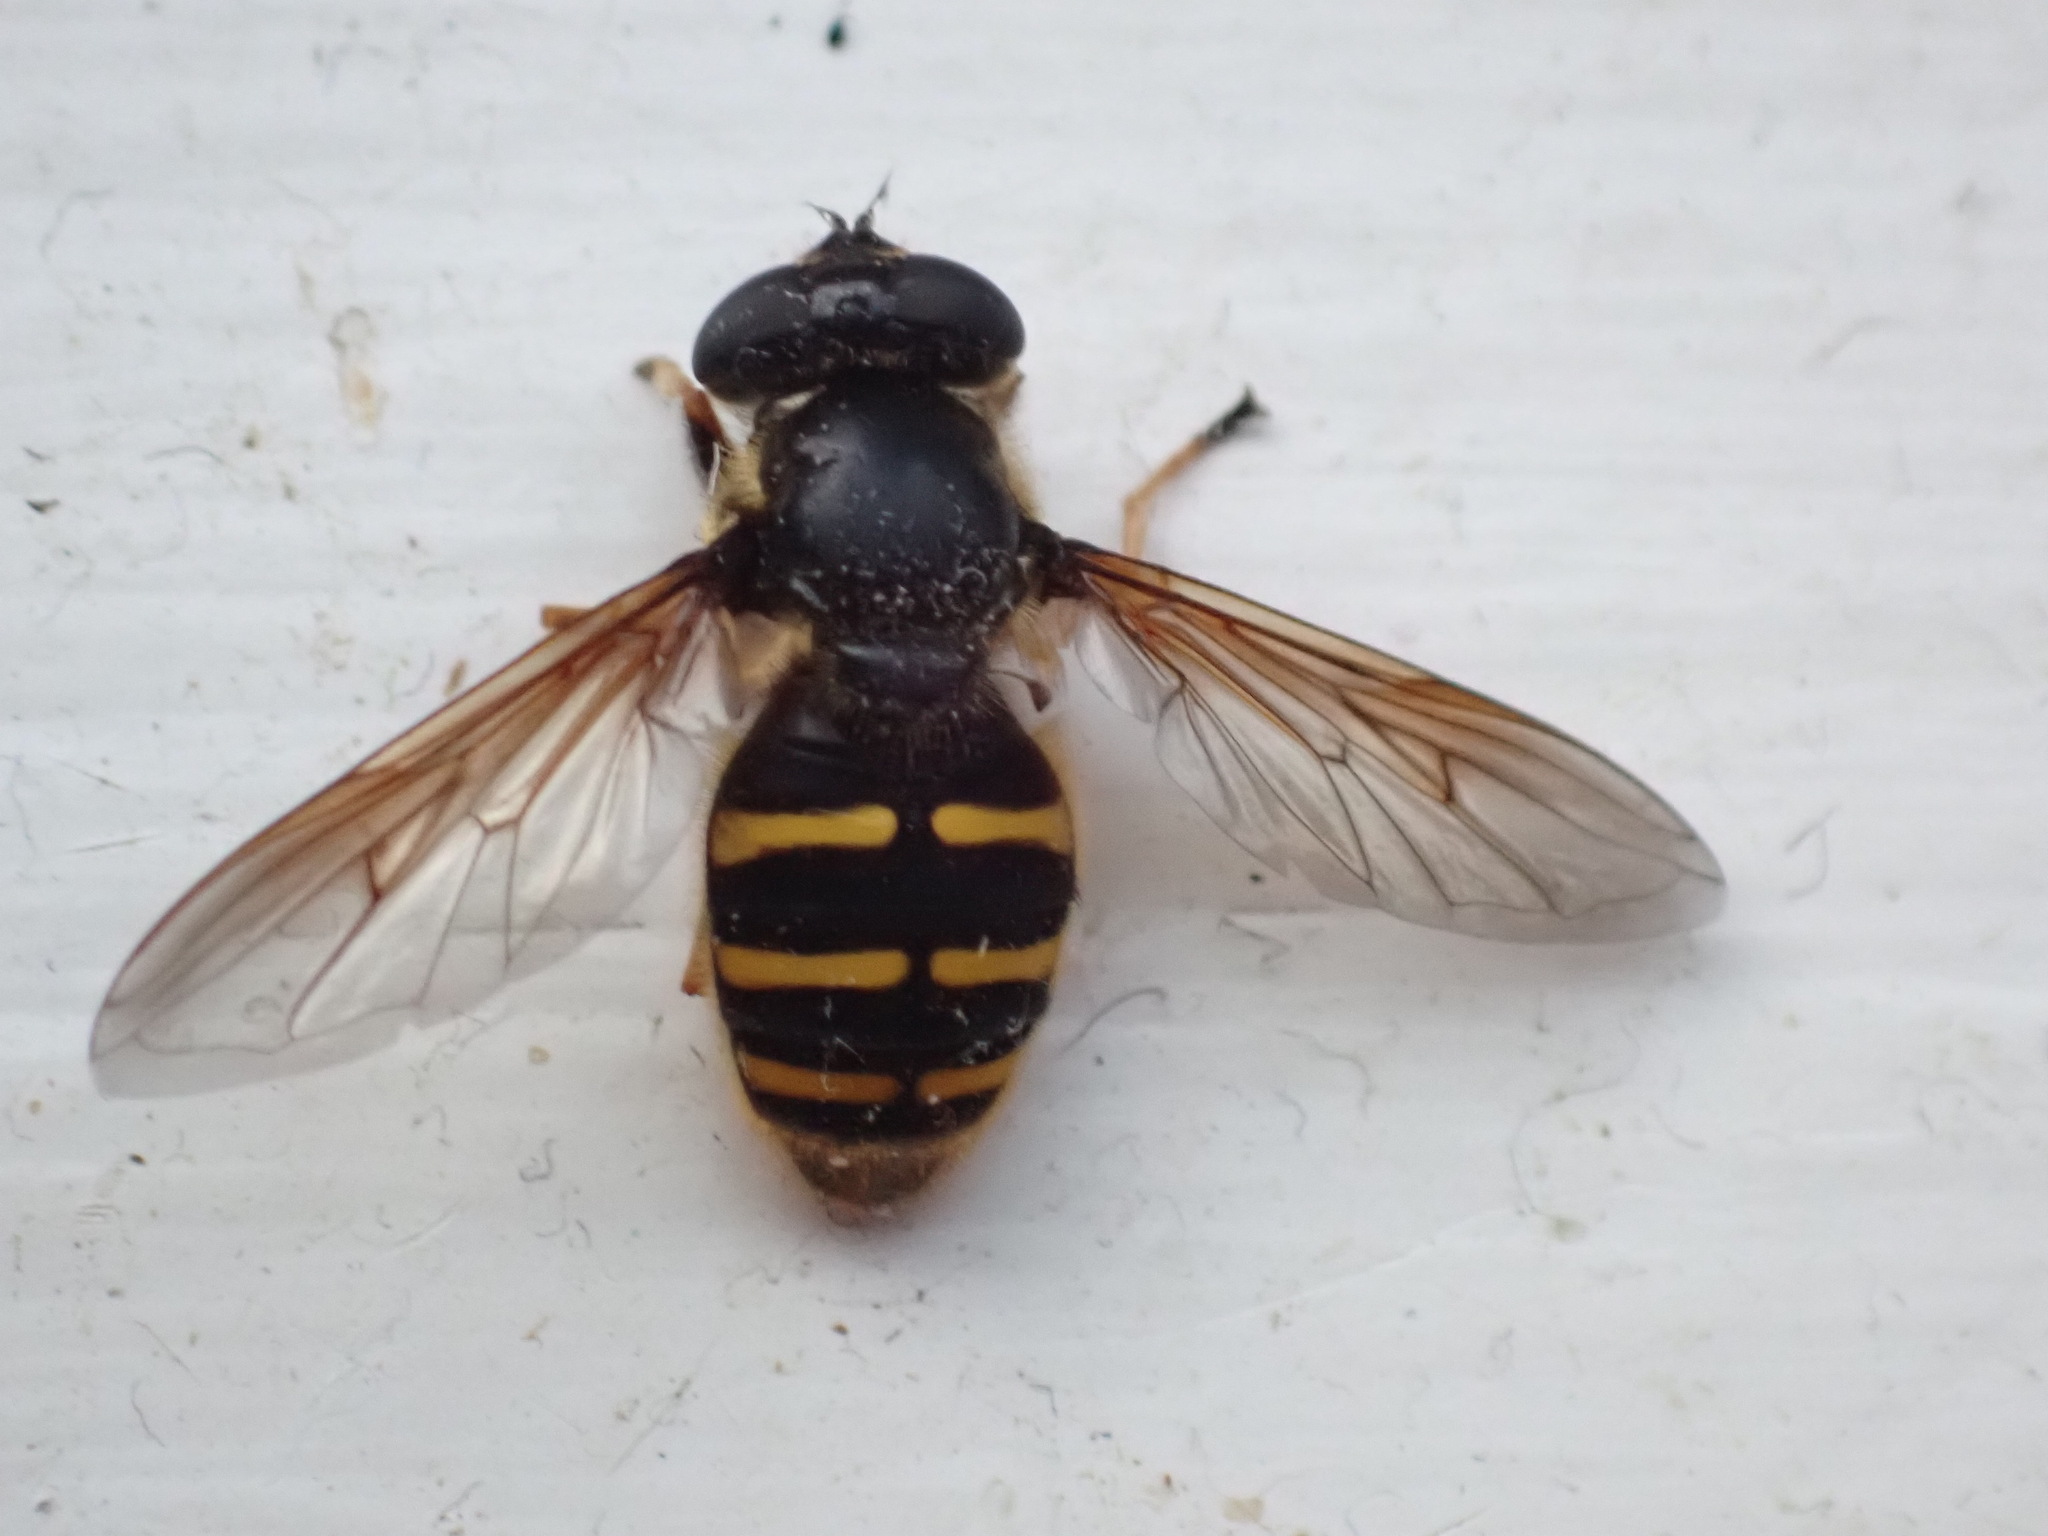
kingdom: Animalia
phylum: Arthropoda
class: Insecta
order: Diptera
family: Syrphidae
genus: Sericomyia
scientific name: Sericomyia chalcopyga
